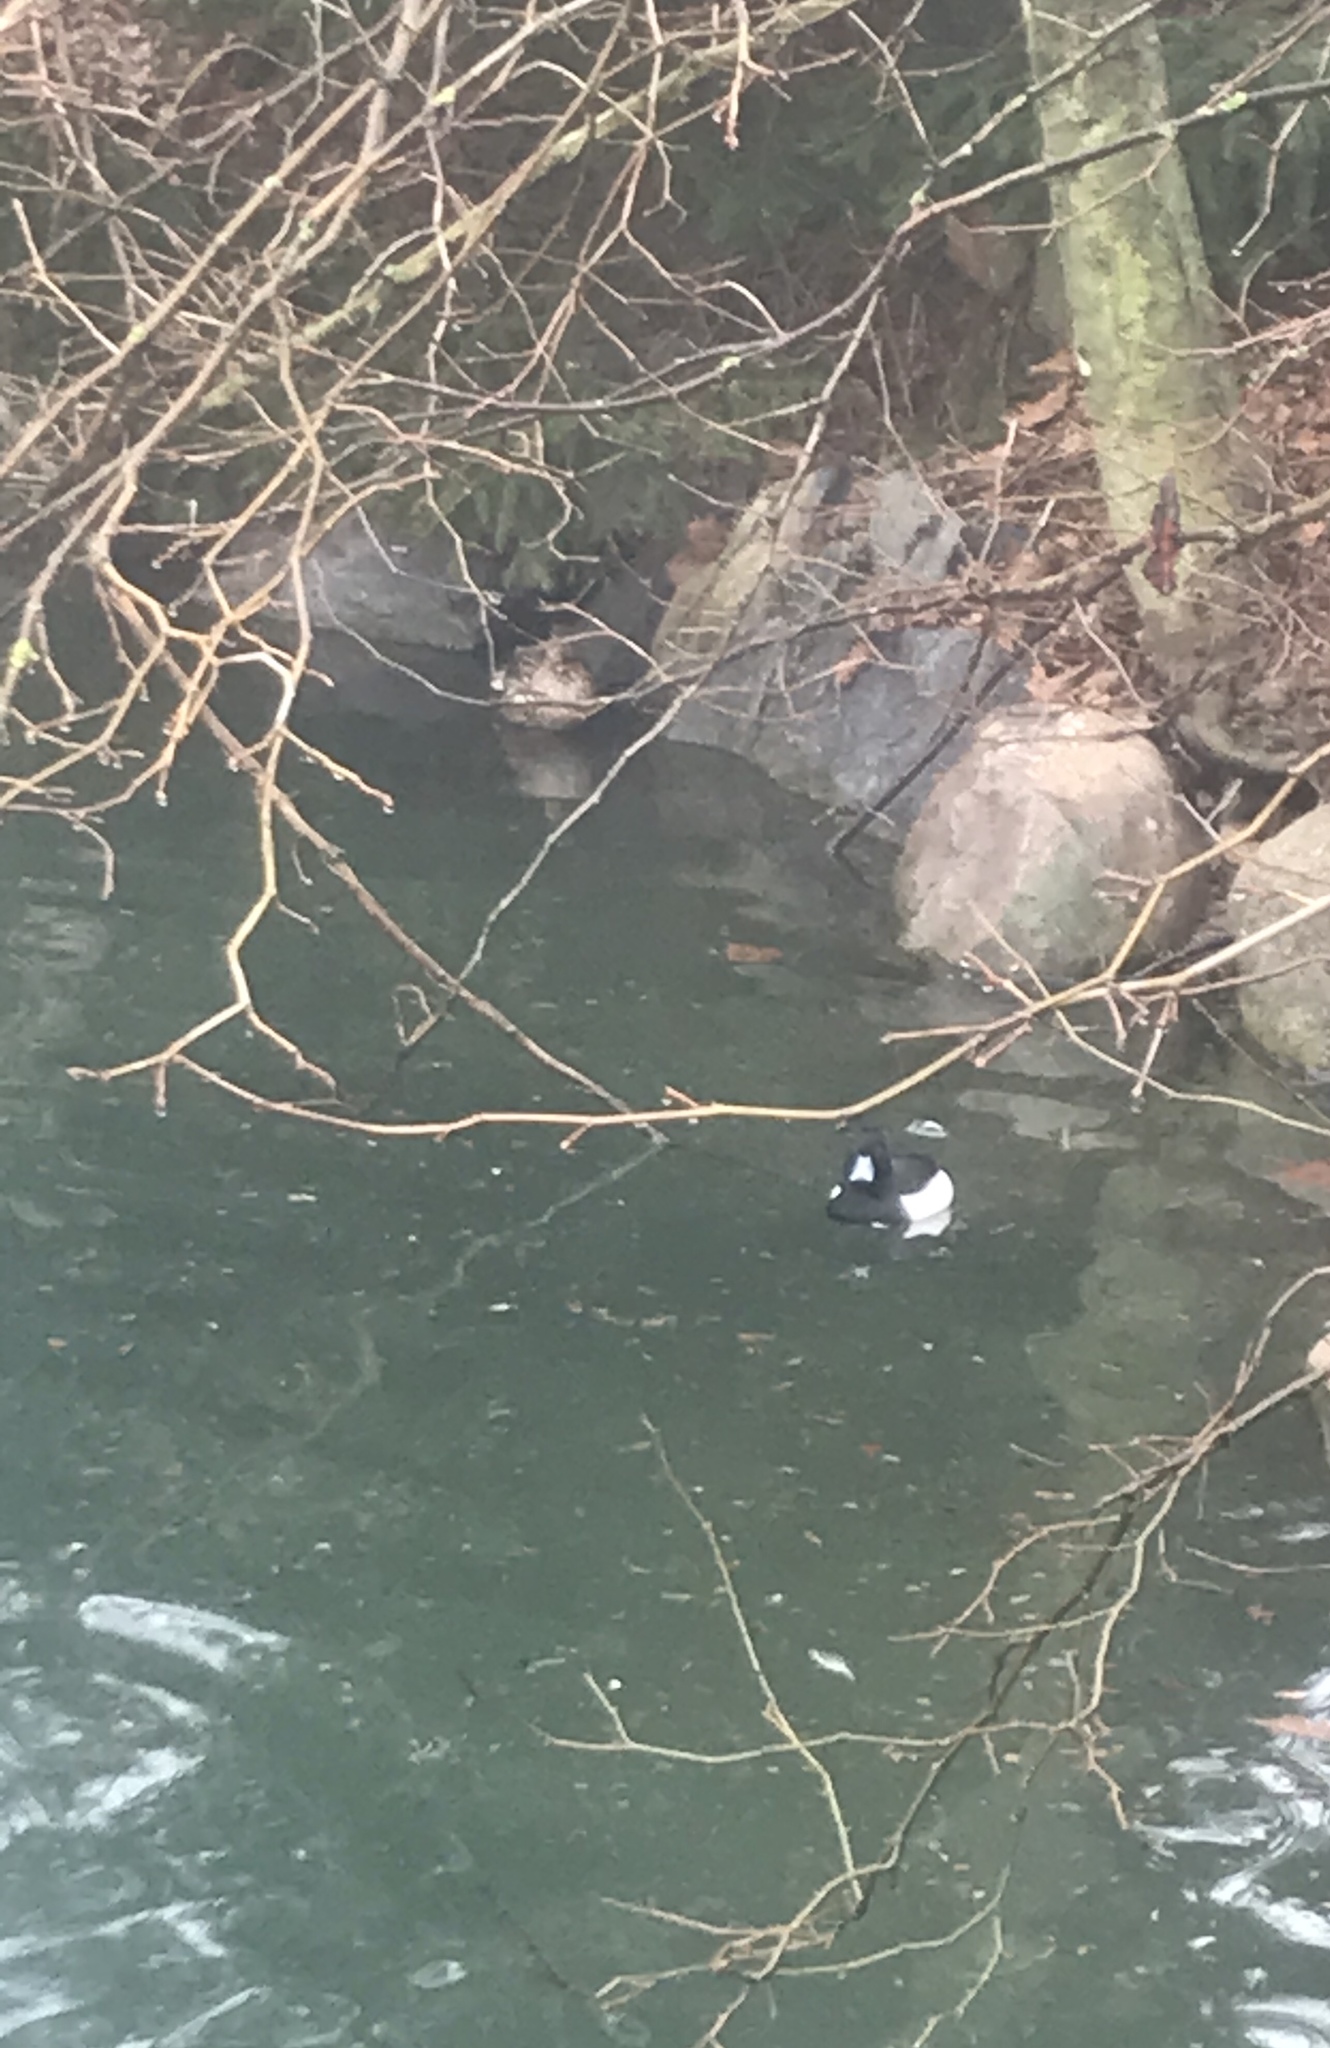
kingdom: Animalia
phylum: Chordata
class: Aves
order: Anseriformes
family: Anatidae
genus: Aythya
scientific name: Aythya fuligula
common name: Tufted duck
